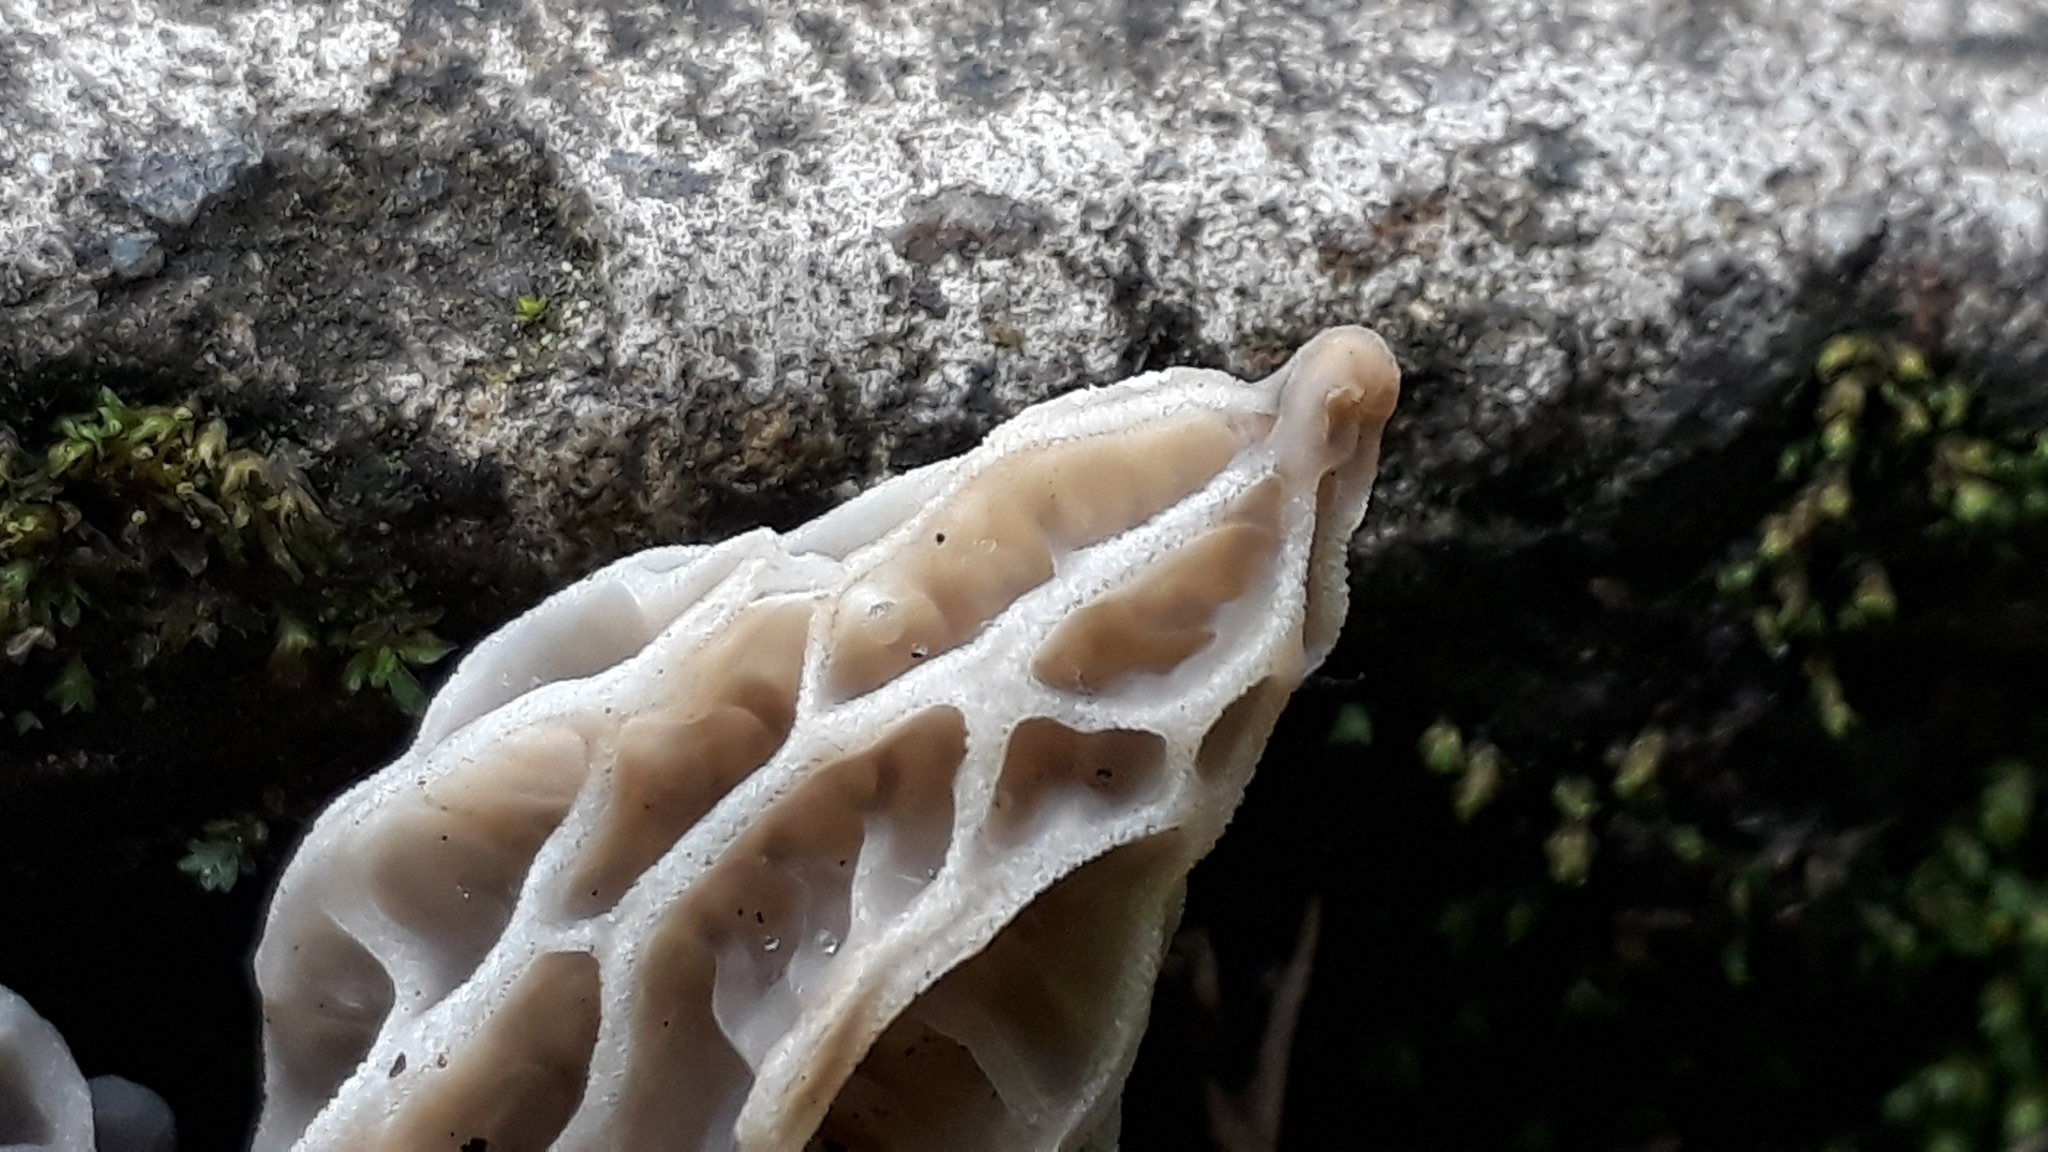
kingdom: Fungi
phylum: Ascomycota
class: Pezizomycetes
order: Pezizales
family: Morchellaceae
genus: Morchella
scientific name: Morchella gracilis
